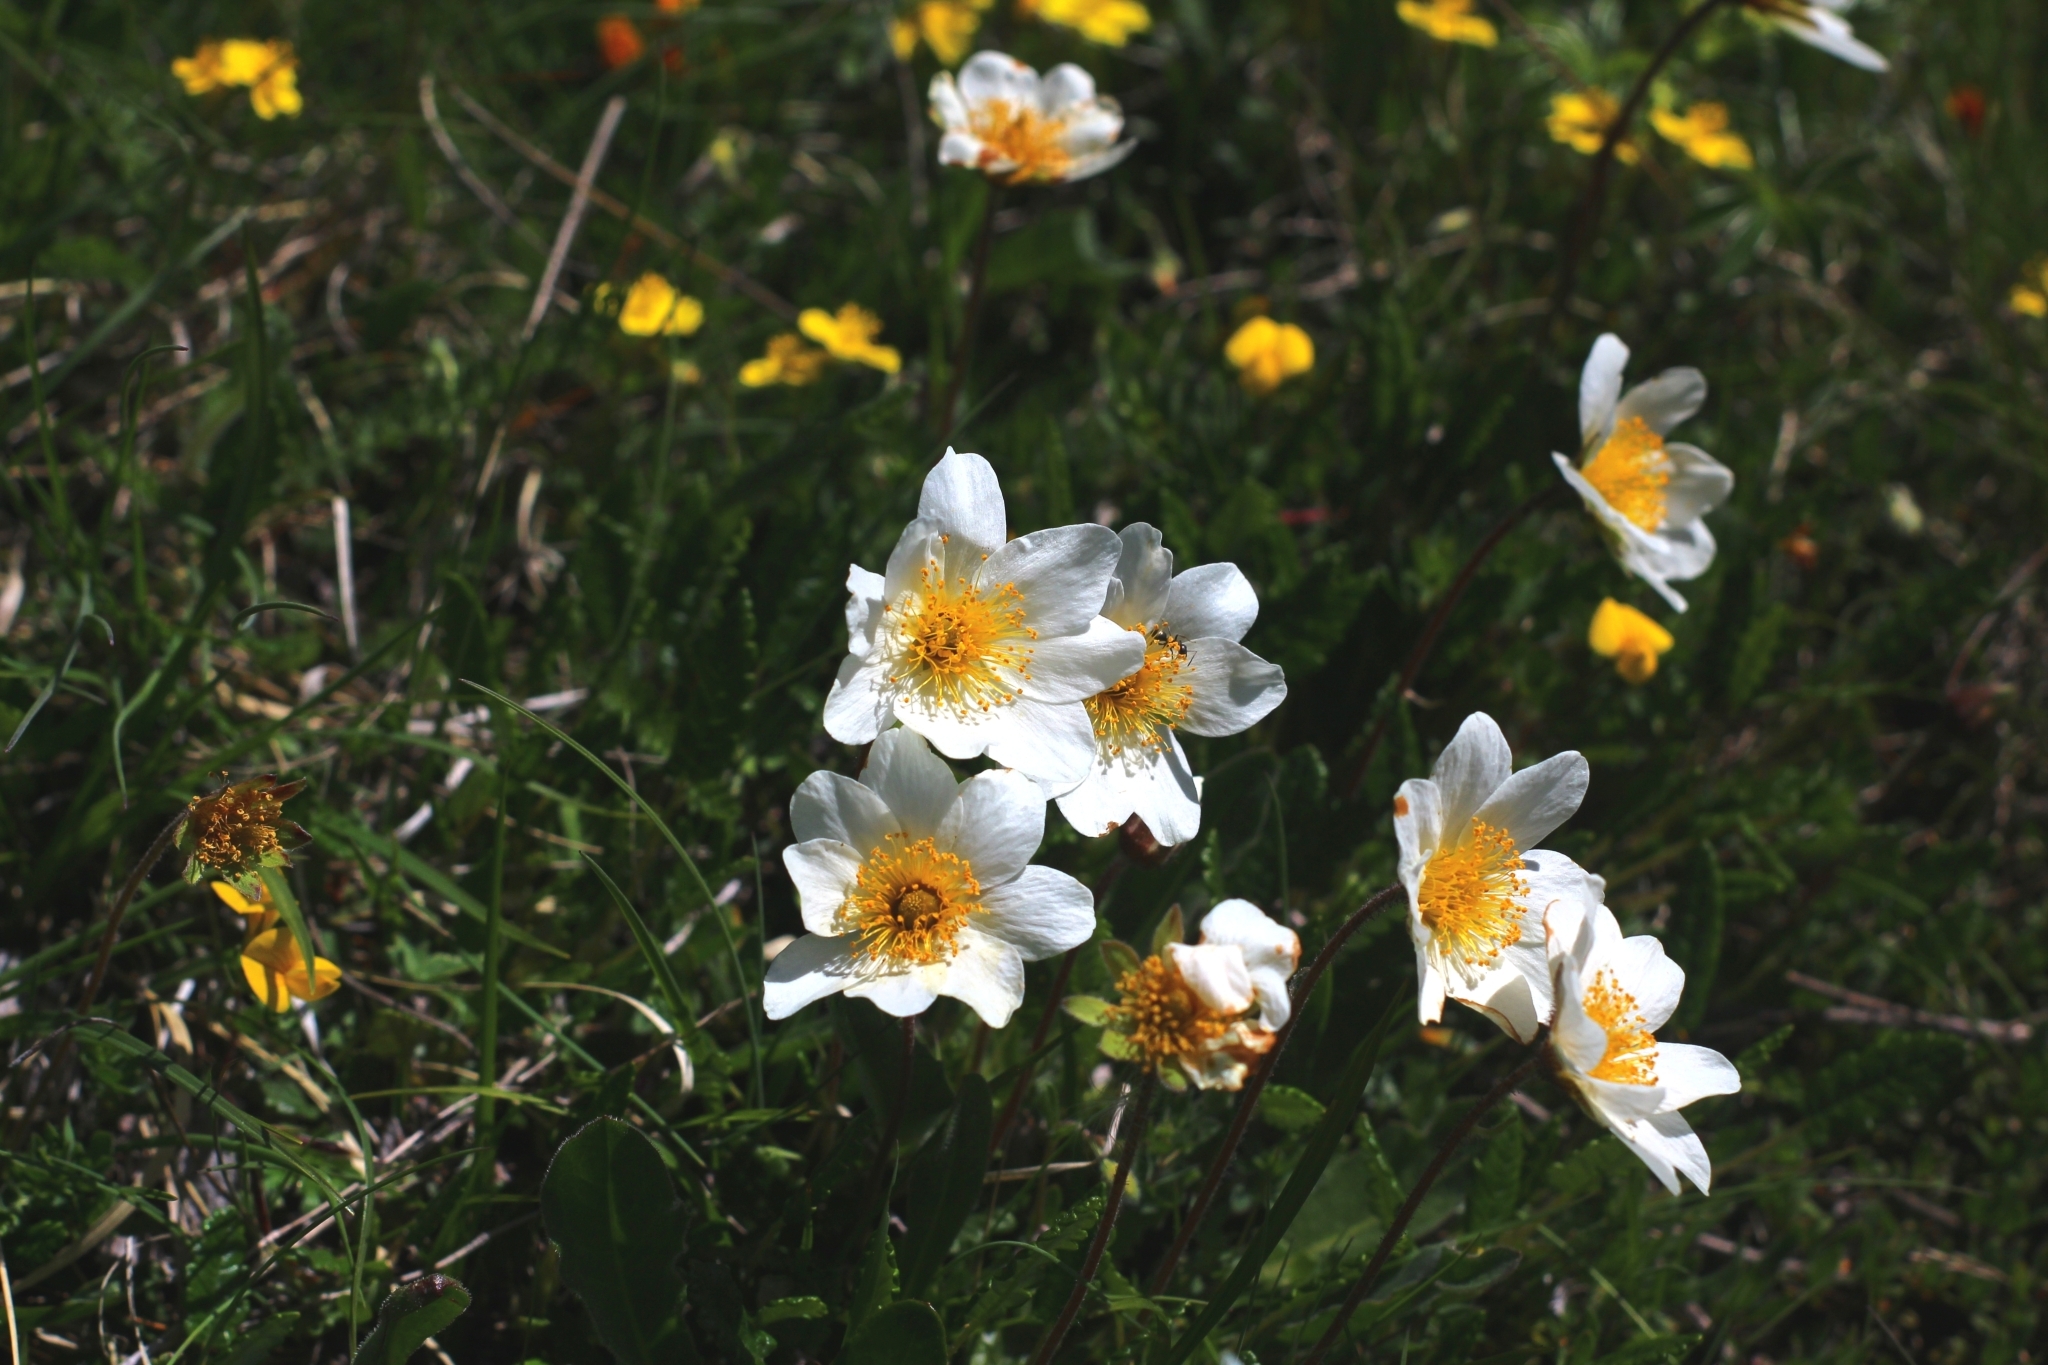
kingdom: Plantae
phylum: Tracheophyta
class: Magnoliopsida
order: Rosales
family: Rosaceae
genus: Dryas
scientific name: Dryas octopetala
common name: Eight-petal mountain-avens
